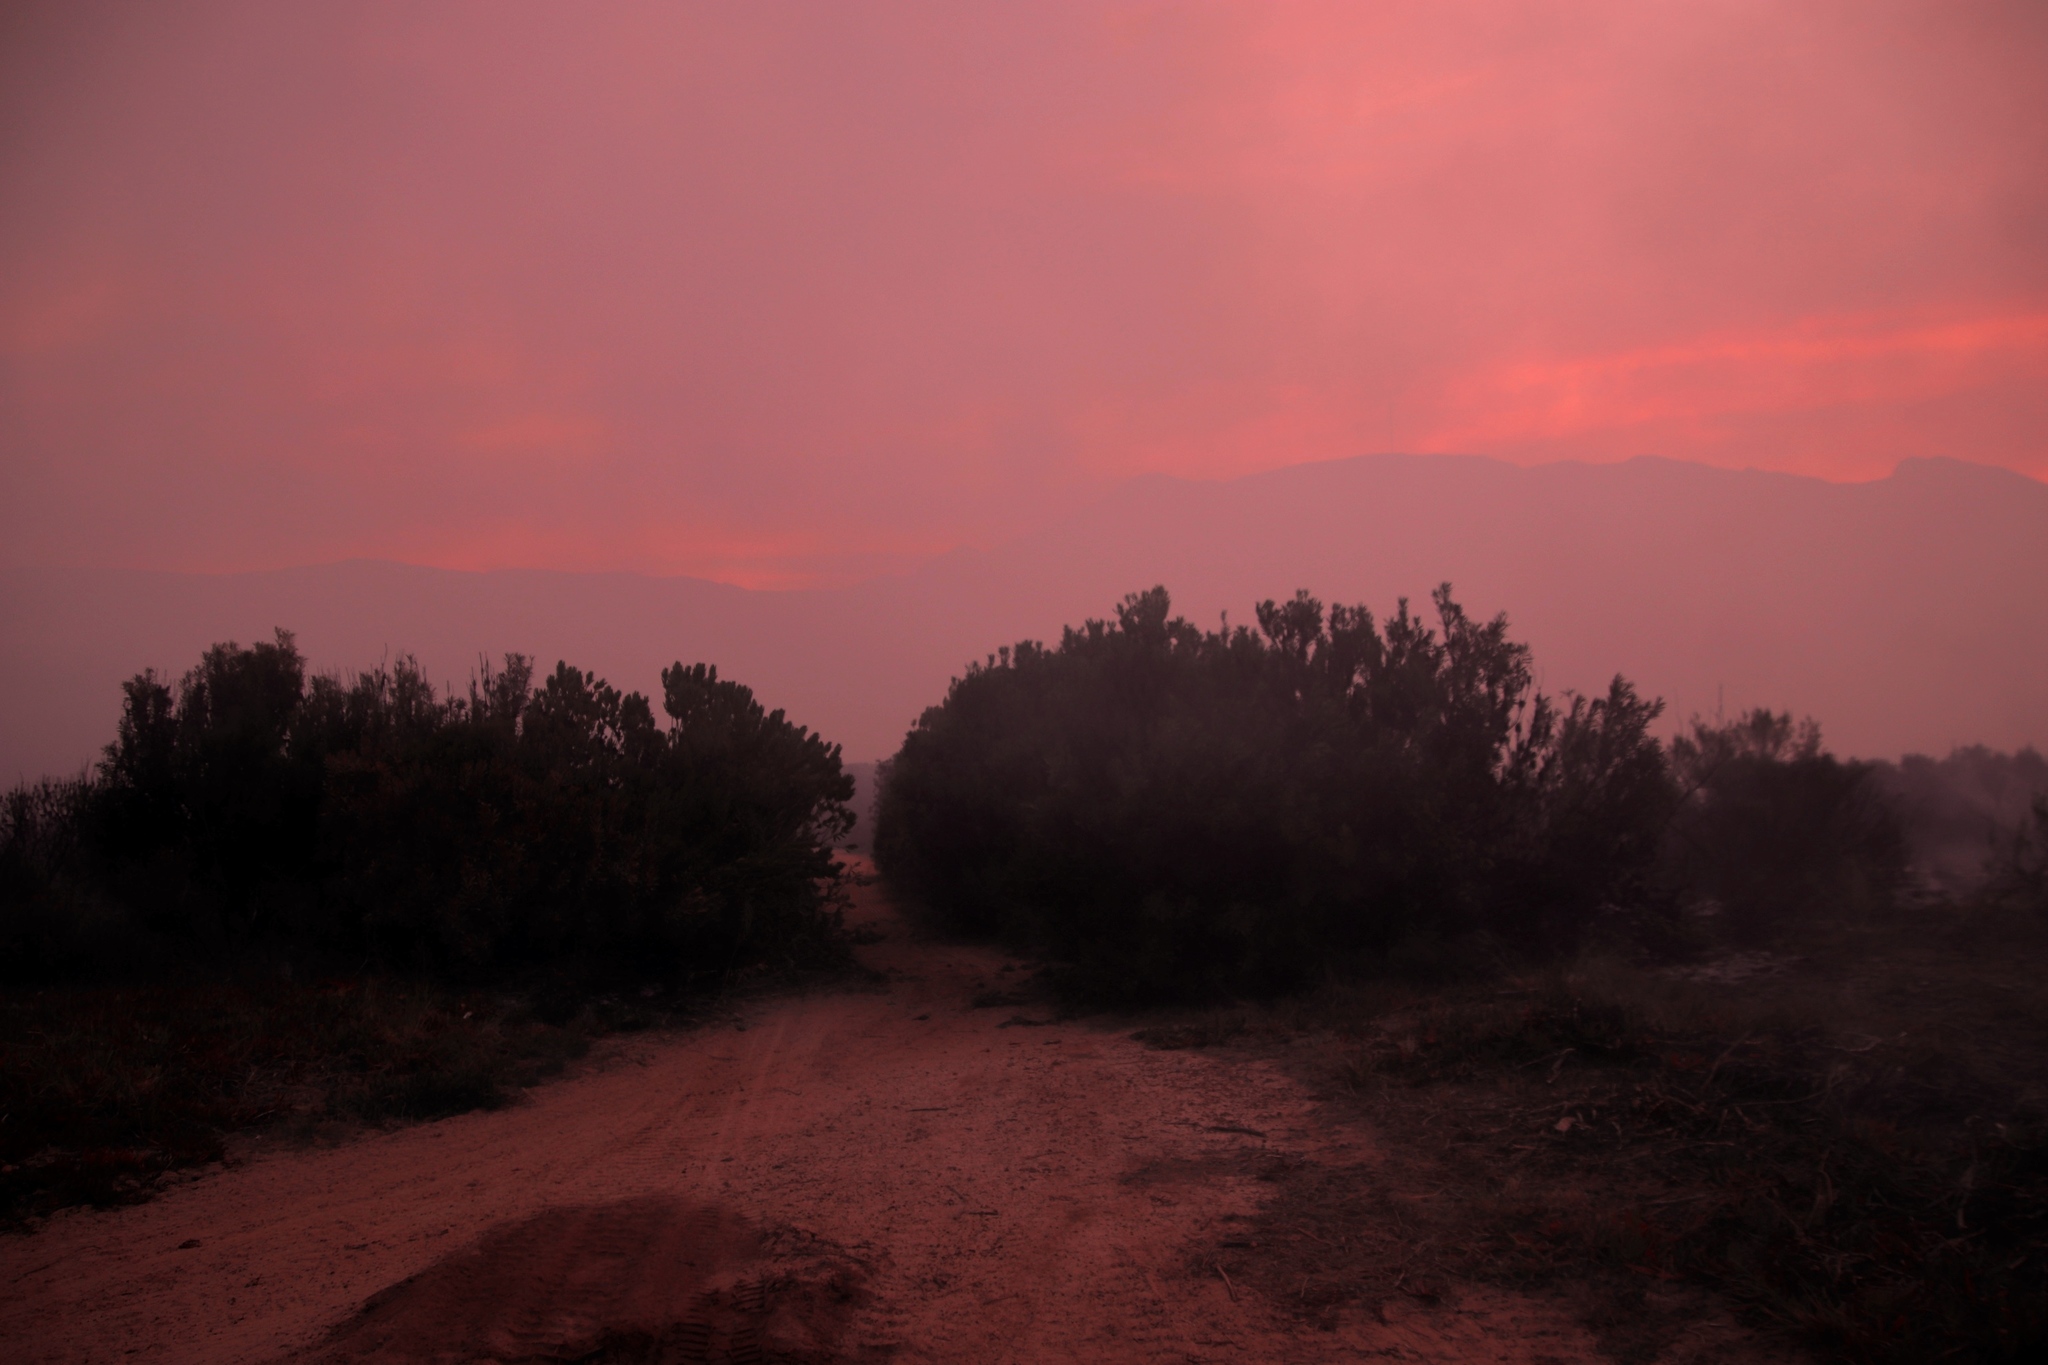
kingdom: Plantae
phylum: Tracheophyta
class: Magnoliopsida
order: Proteales
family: Proteaceae
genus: Leucadendron
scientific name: Leucadendron laureolum
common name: Golden sunshinebush
